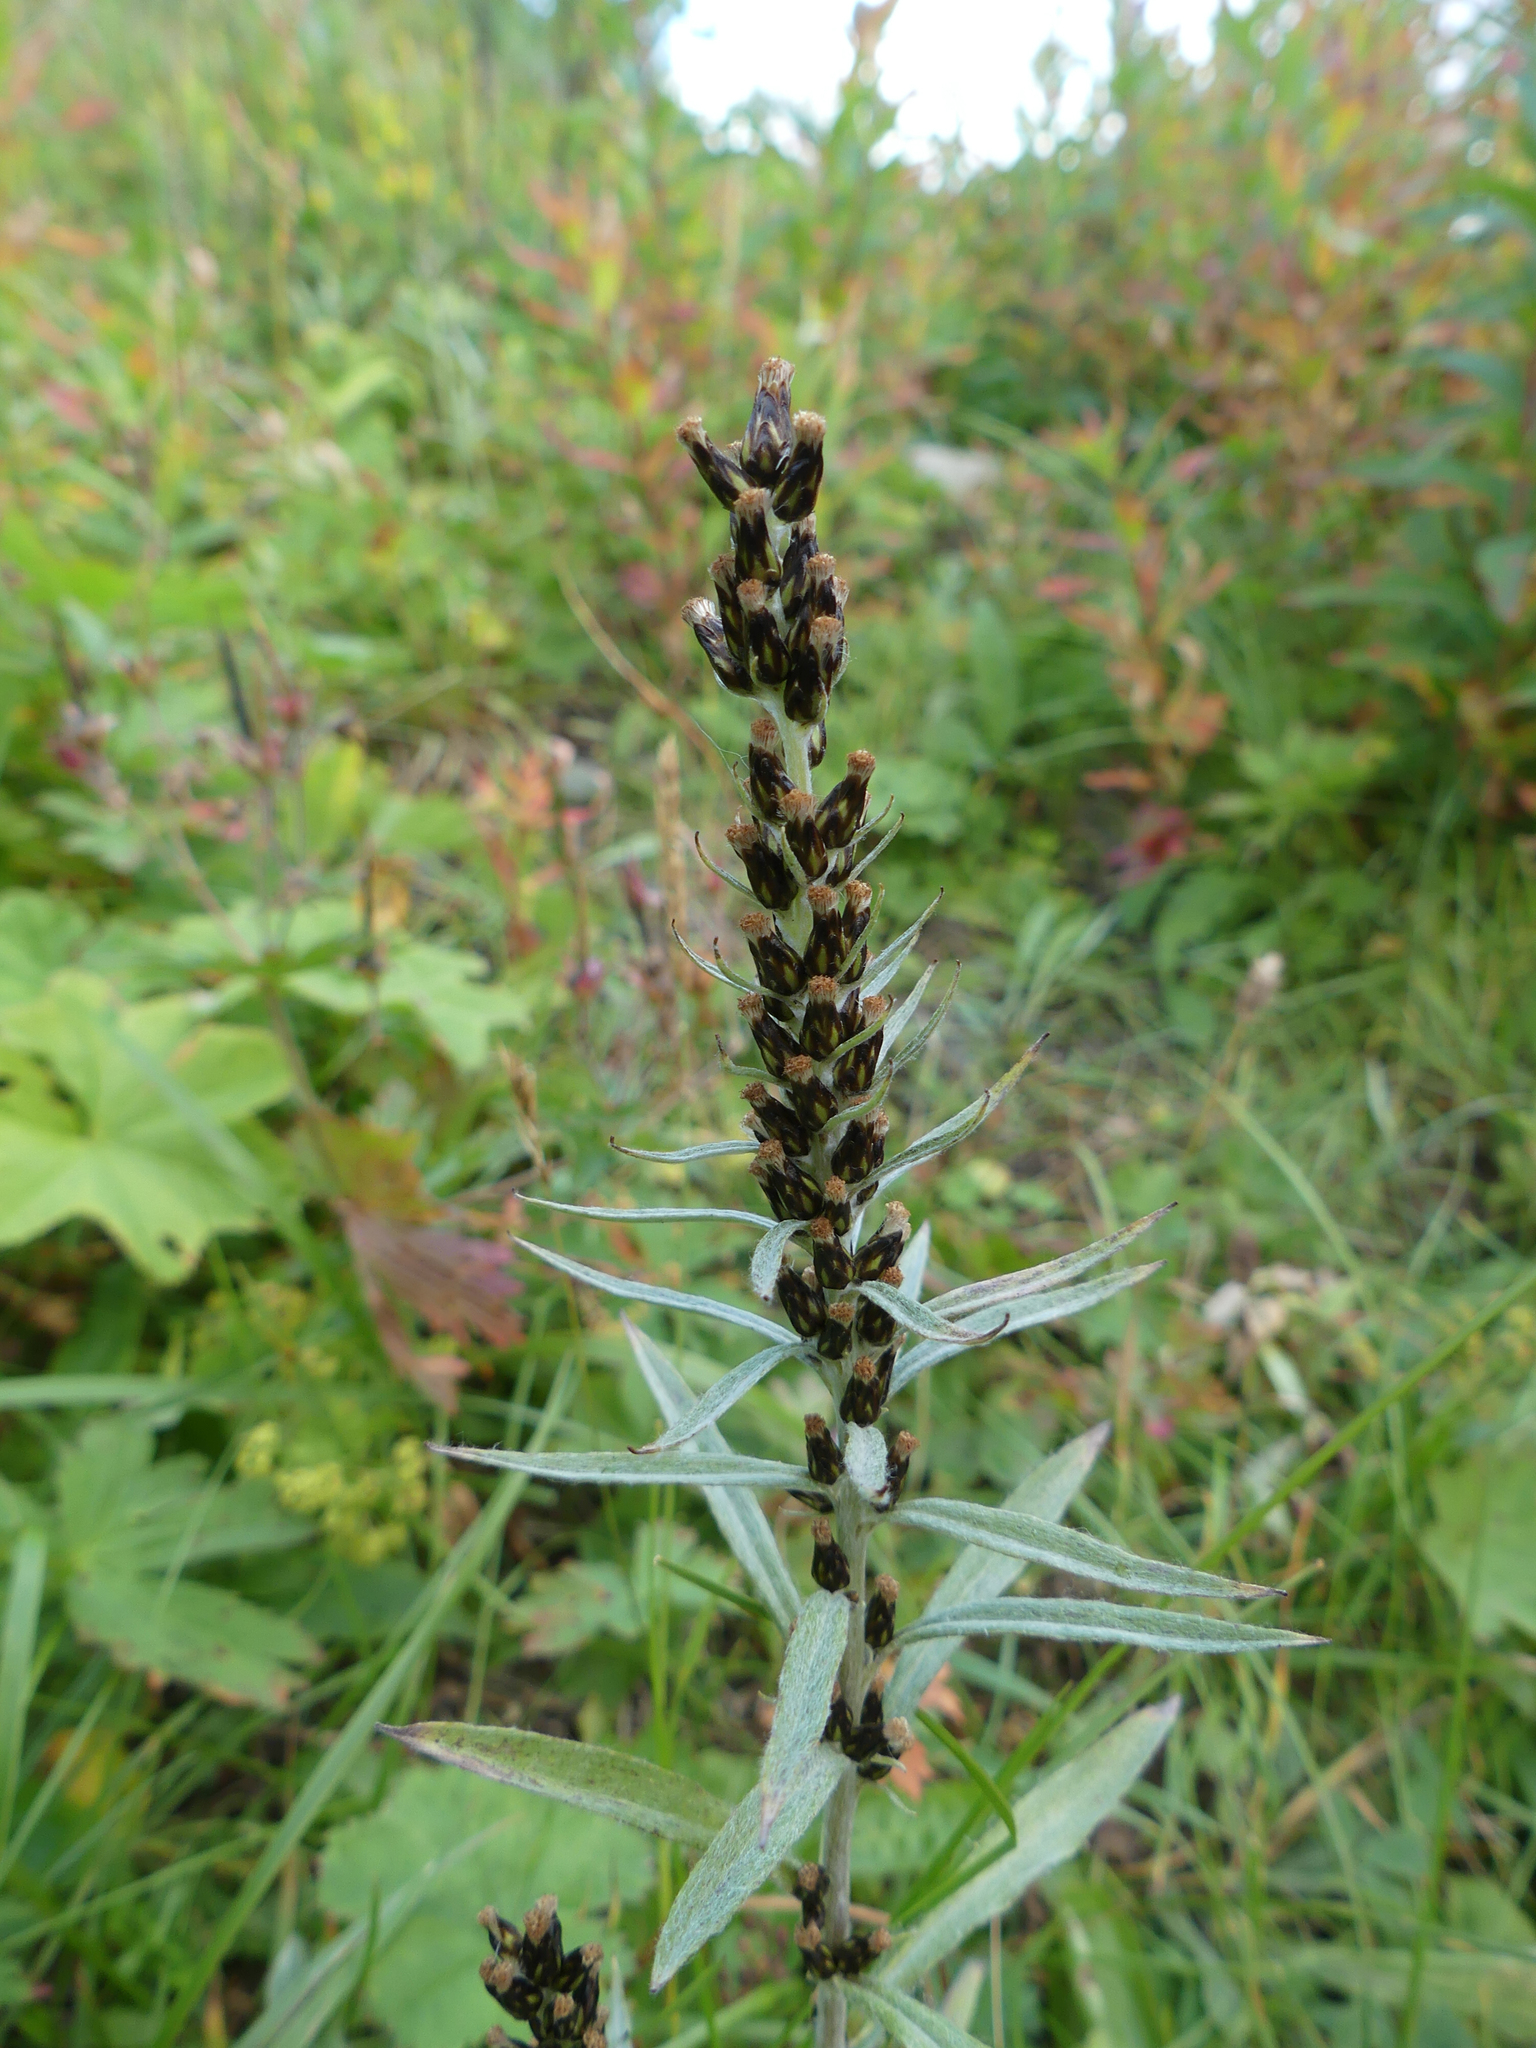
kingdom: Plantae
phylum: Tracheophyta
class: Magnoliopsida
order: Asterales
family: Asteraceae
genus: Omalotheca
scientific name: Omalotheca norvegica
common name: Norwegian arctic-cudweed
